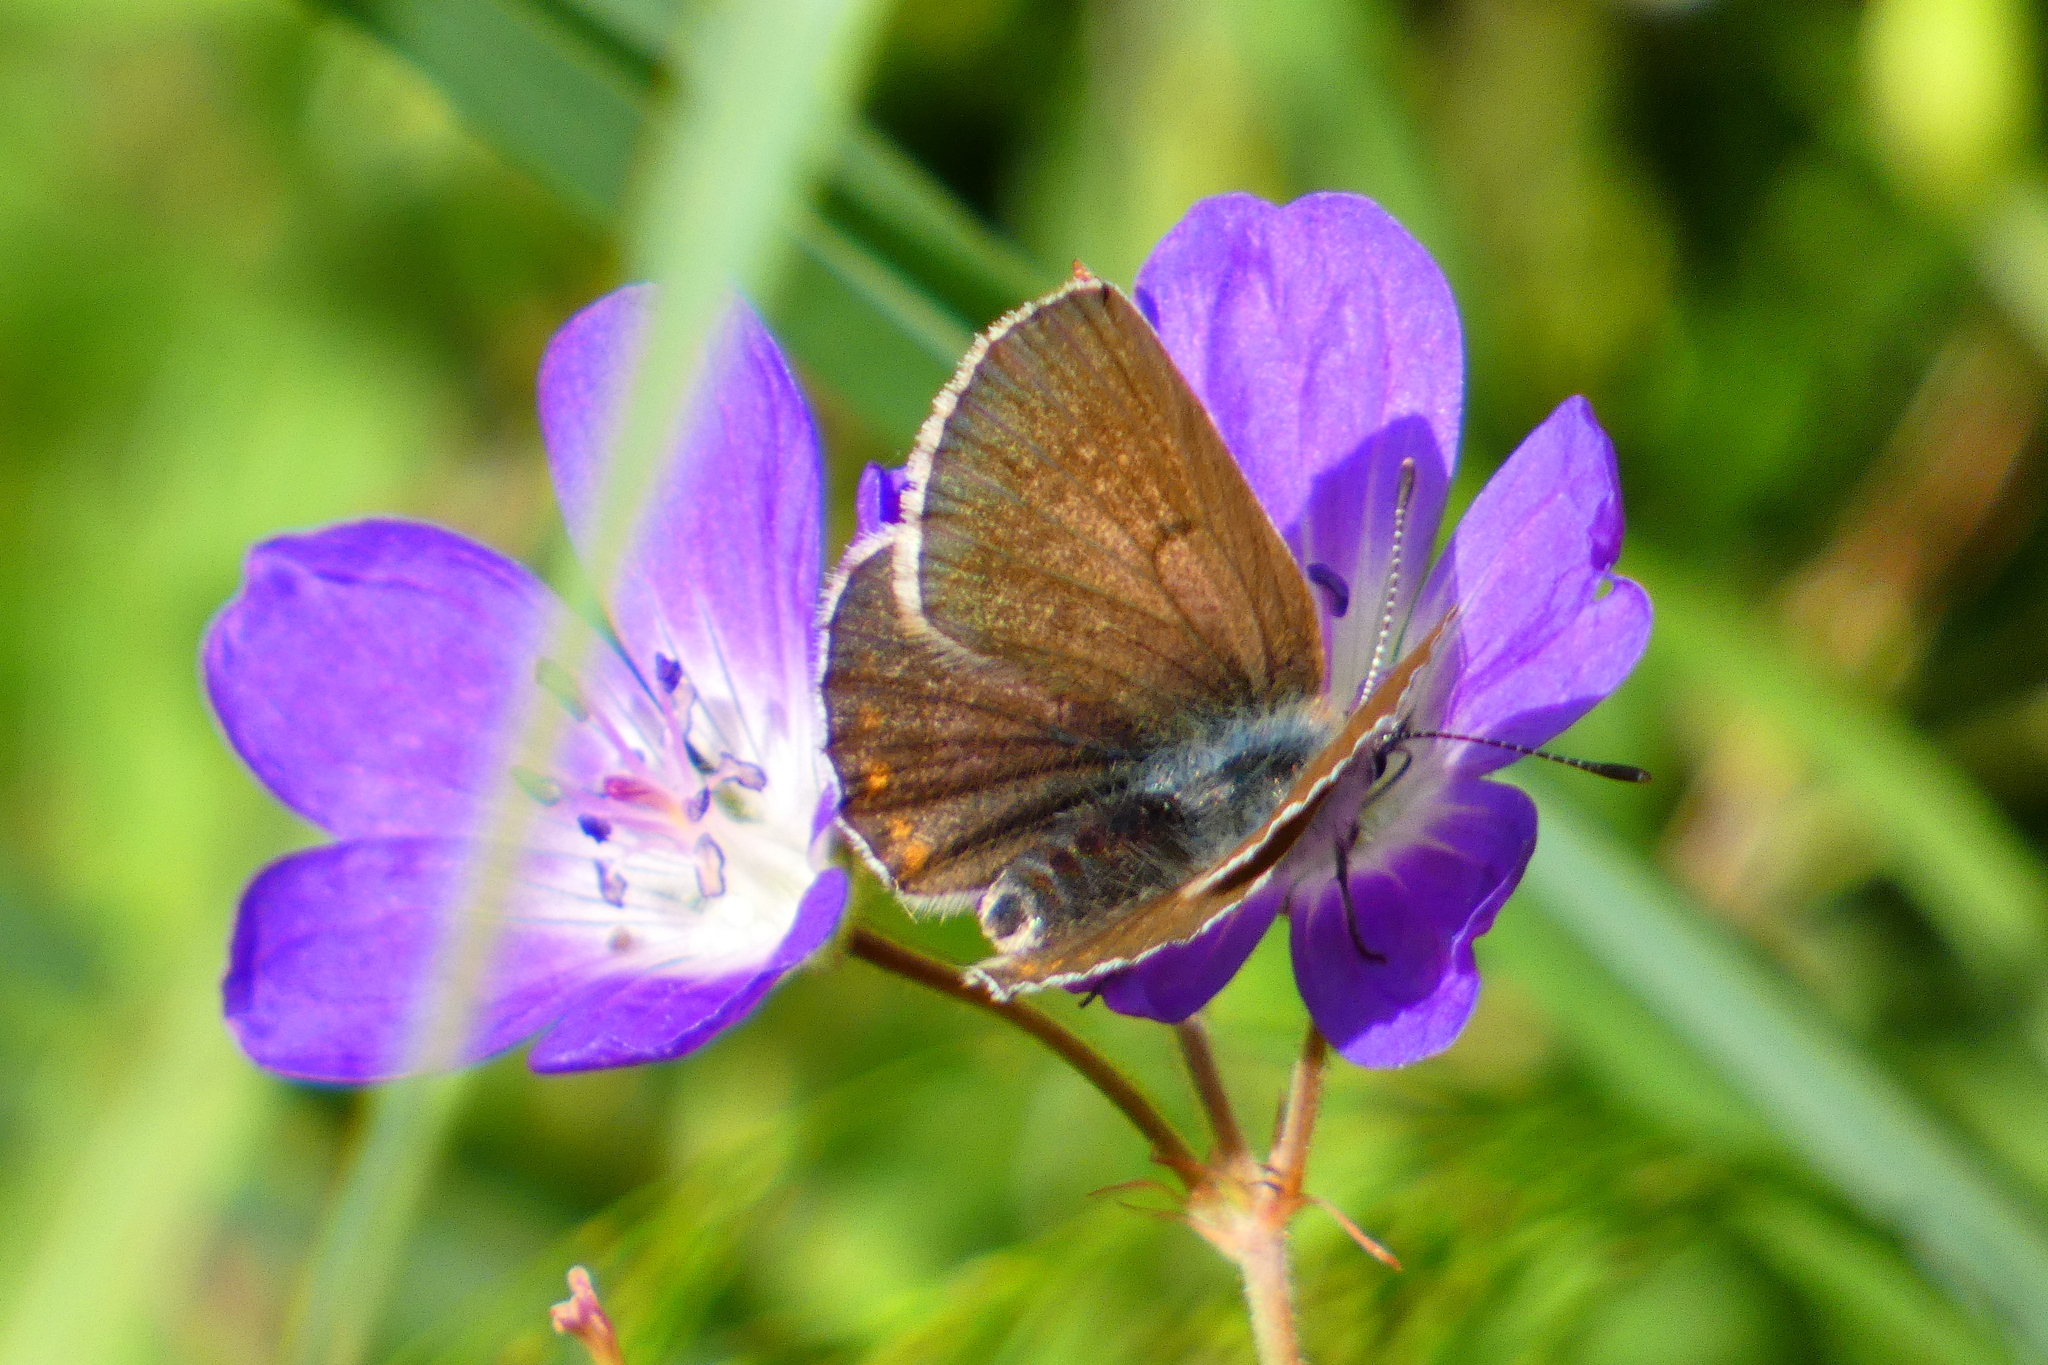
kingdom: Animalia
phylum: Arthropoda
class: Insecta
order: Lepidoptera
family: Lycaenidae
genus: Eumedonia
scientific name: Eumedonia eumedon
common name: Geranium argus
